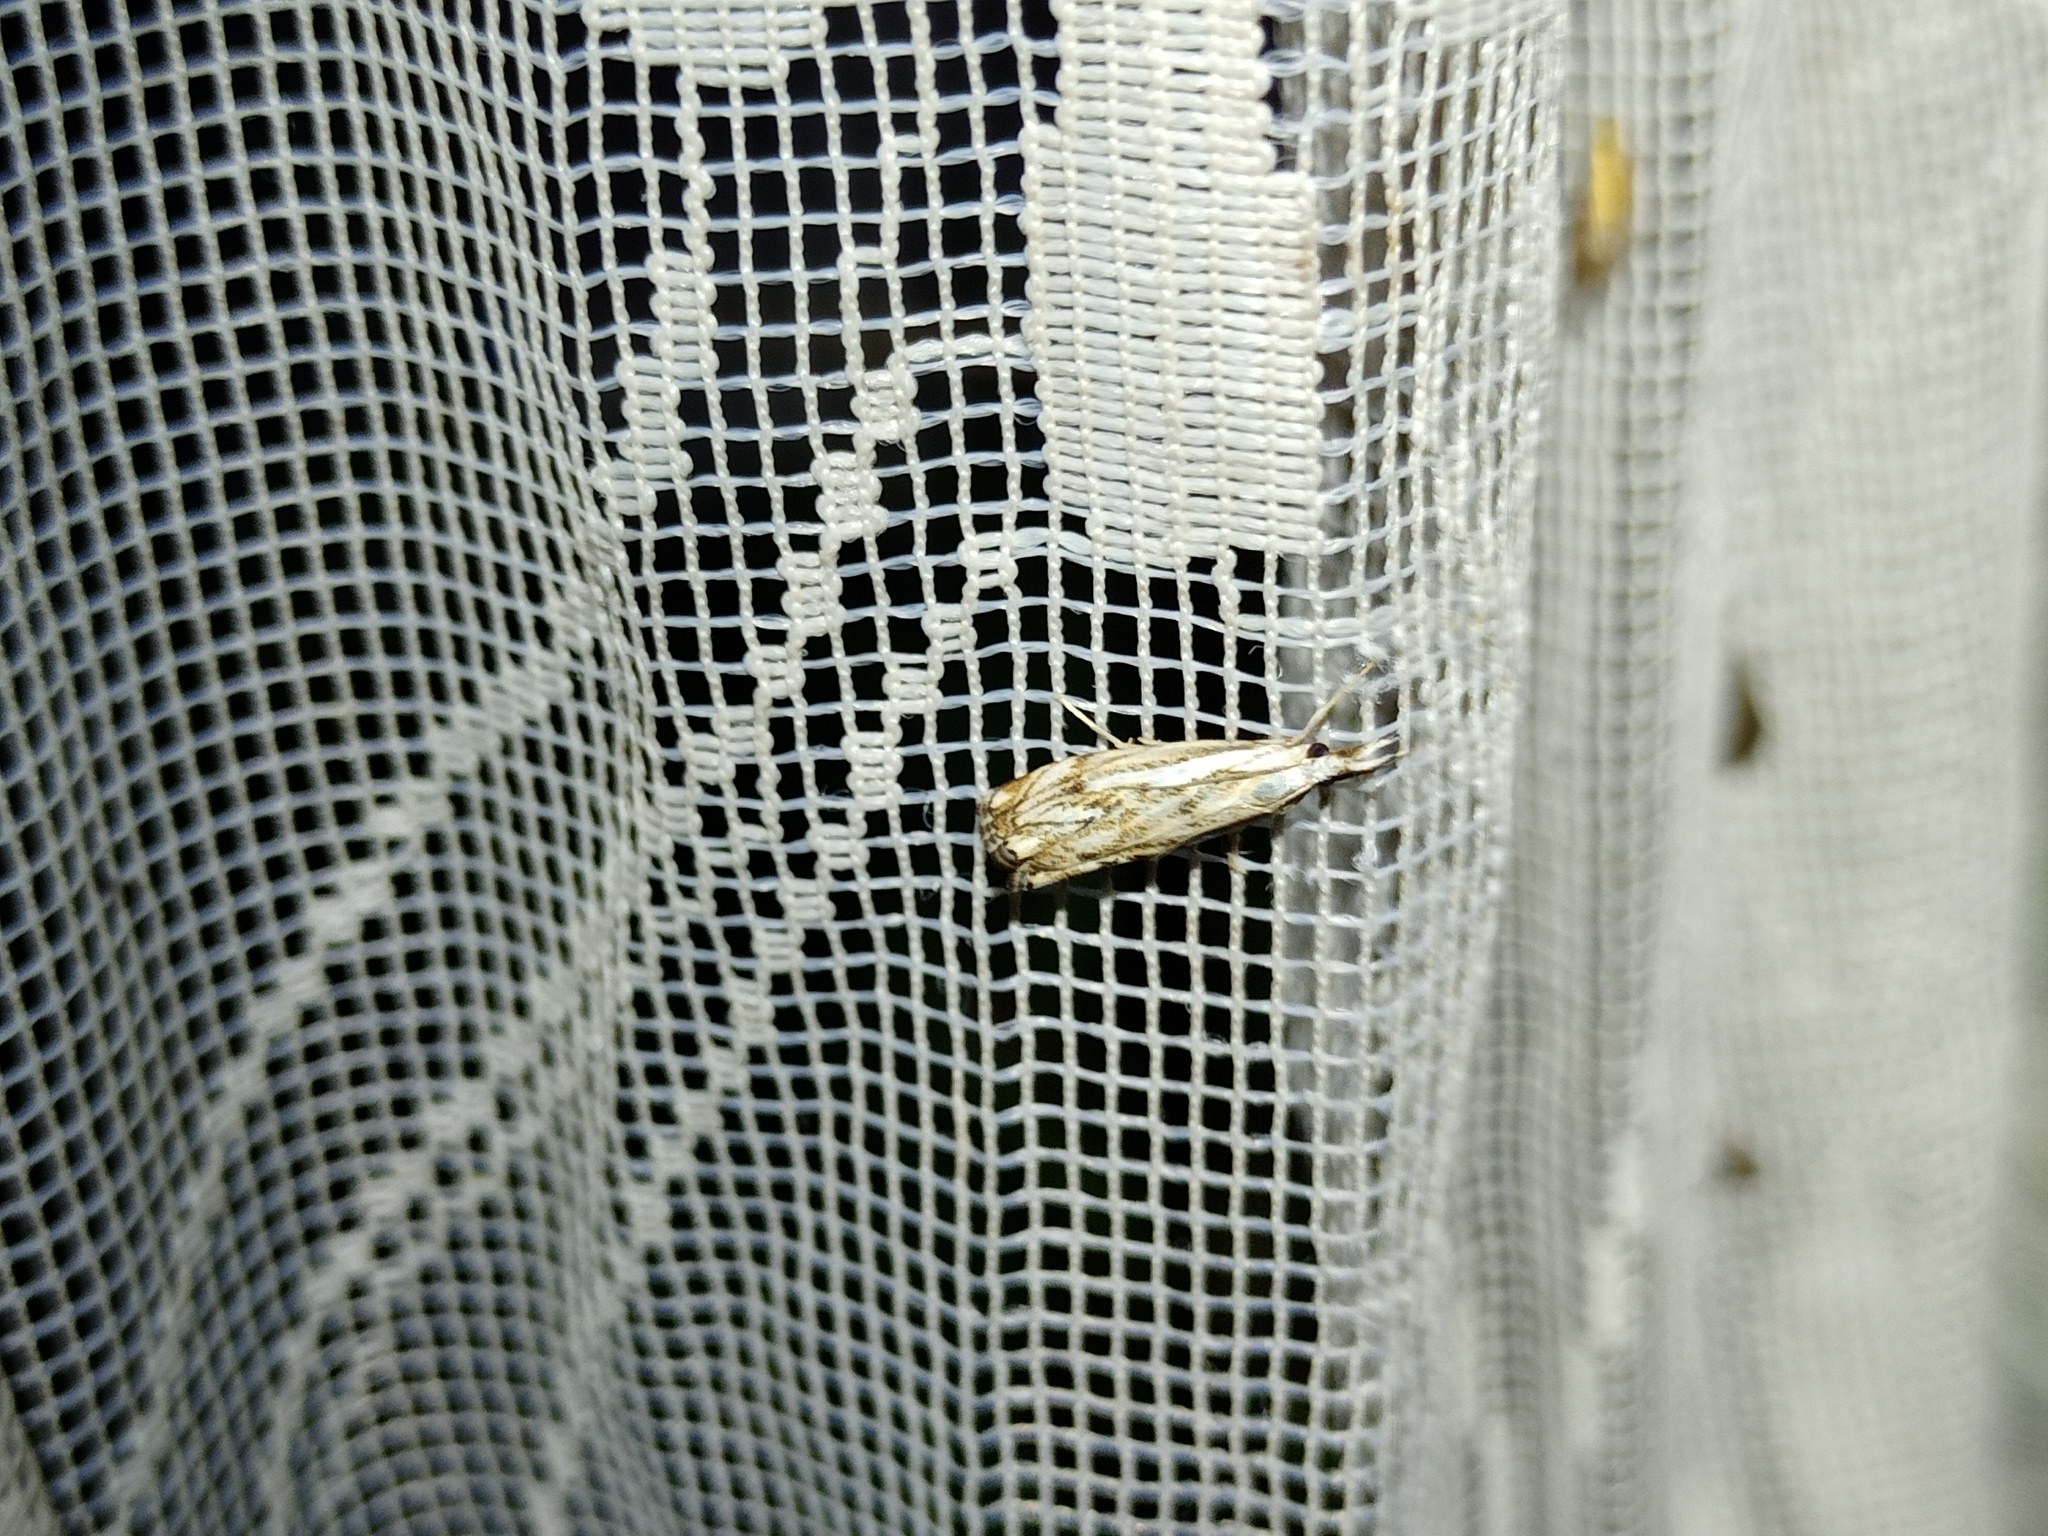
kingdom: Animalia
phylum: Arthropoda
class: Insecta
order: Lepidoptera
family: Crambidae
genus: Catoptria
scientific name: Catoptria falsella
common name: Chequered grass-veneer
